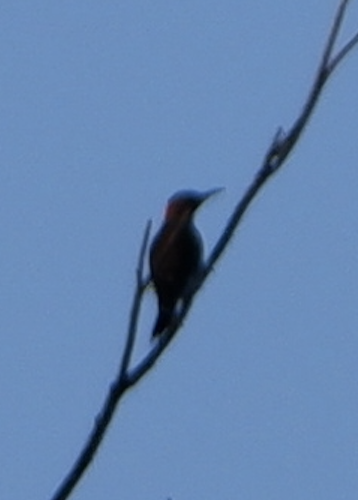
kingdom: Animalia
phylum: Chordata
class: Aves
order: Piciformes
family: Picidae
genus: Colaptes
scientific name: Colaptes auratus
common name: Northern flicker
